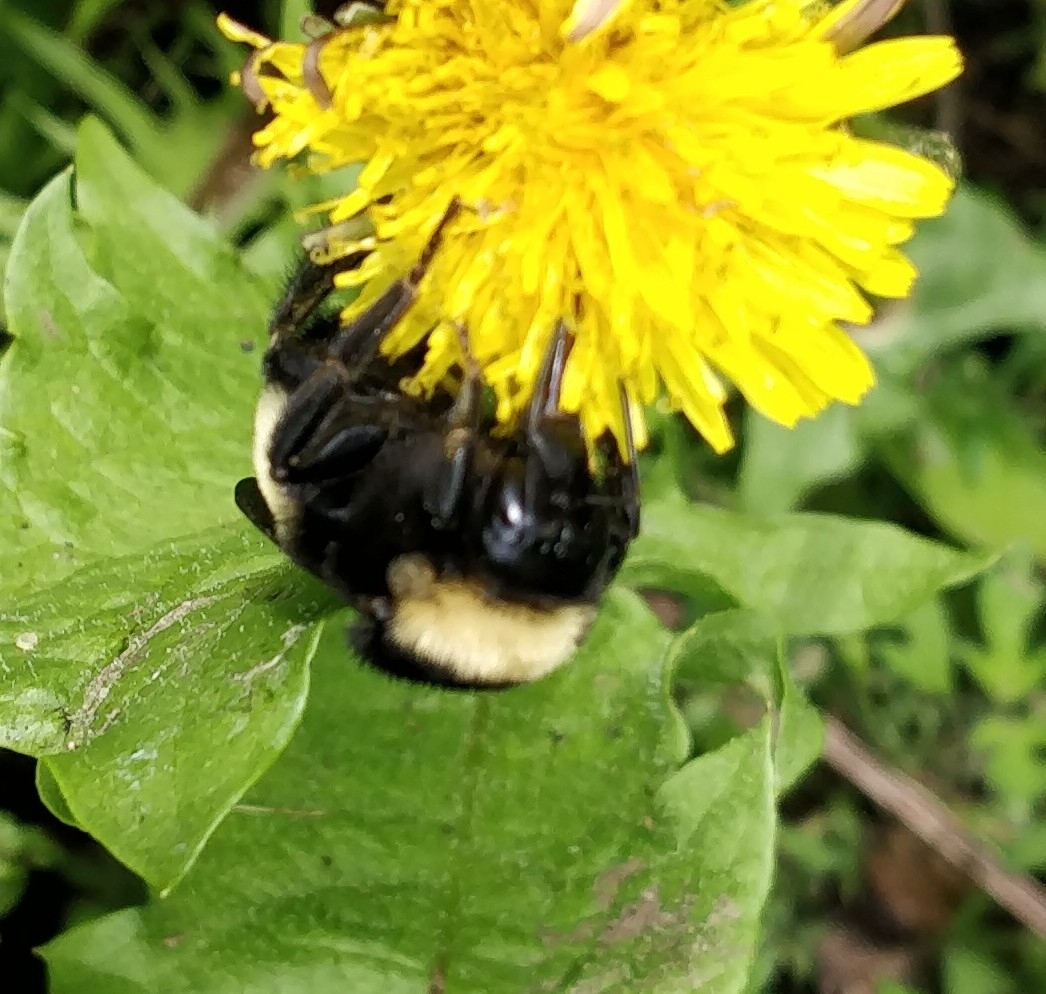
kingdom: Animalia
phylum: Arthropoda
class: Insecta
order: Hymenoptera
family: Apidae
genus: Bombus
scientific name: Bombus pensylvanicus
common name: Bumble bee
